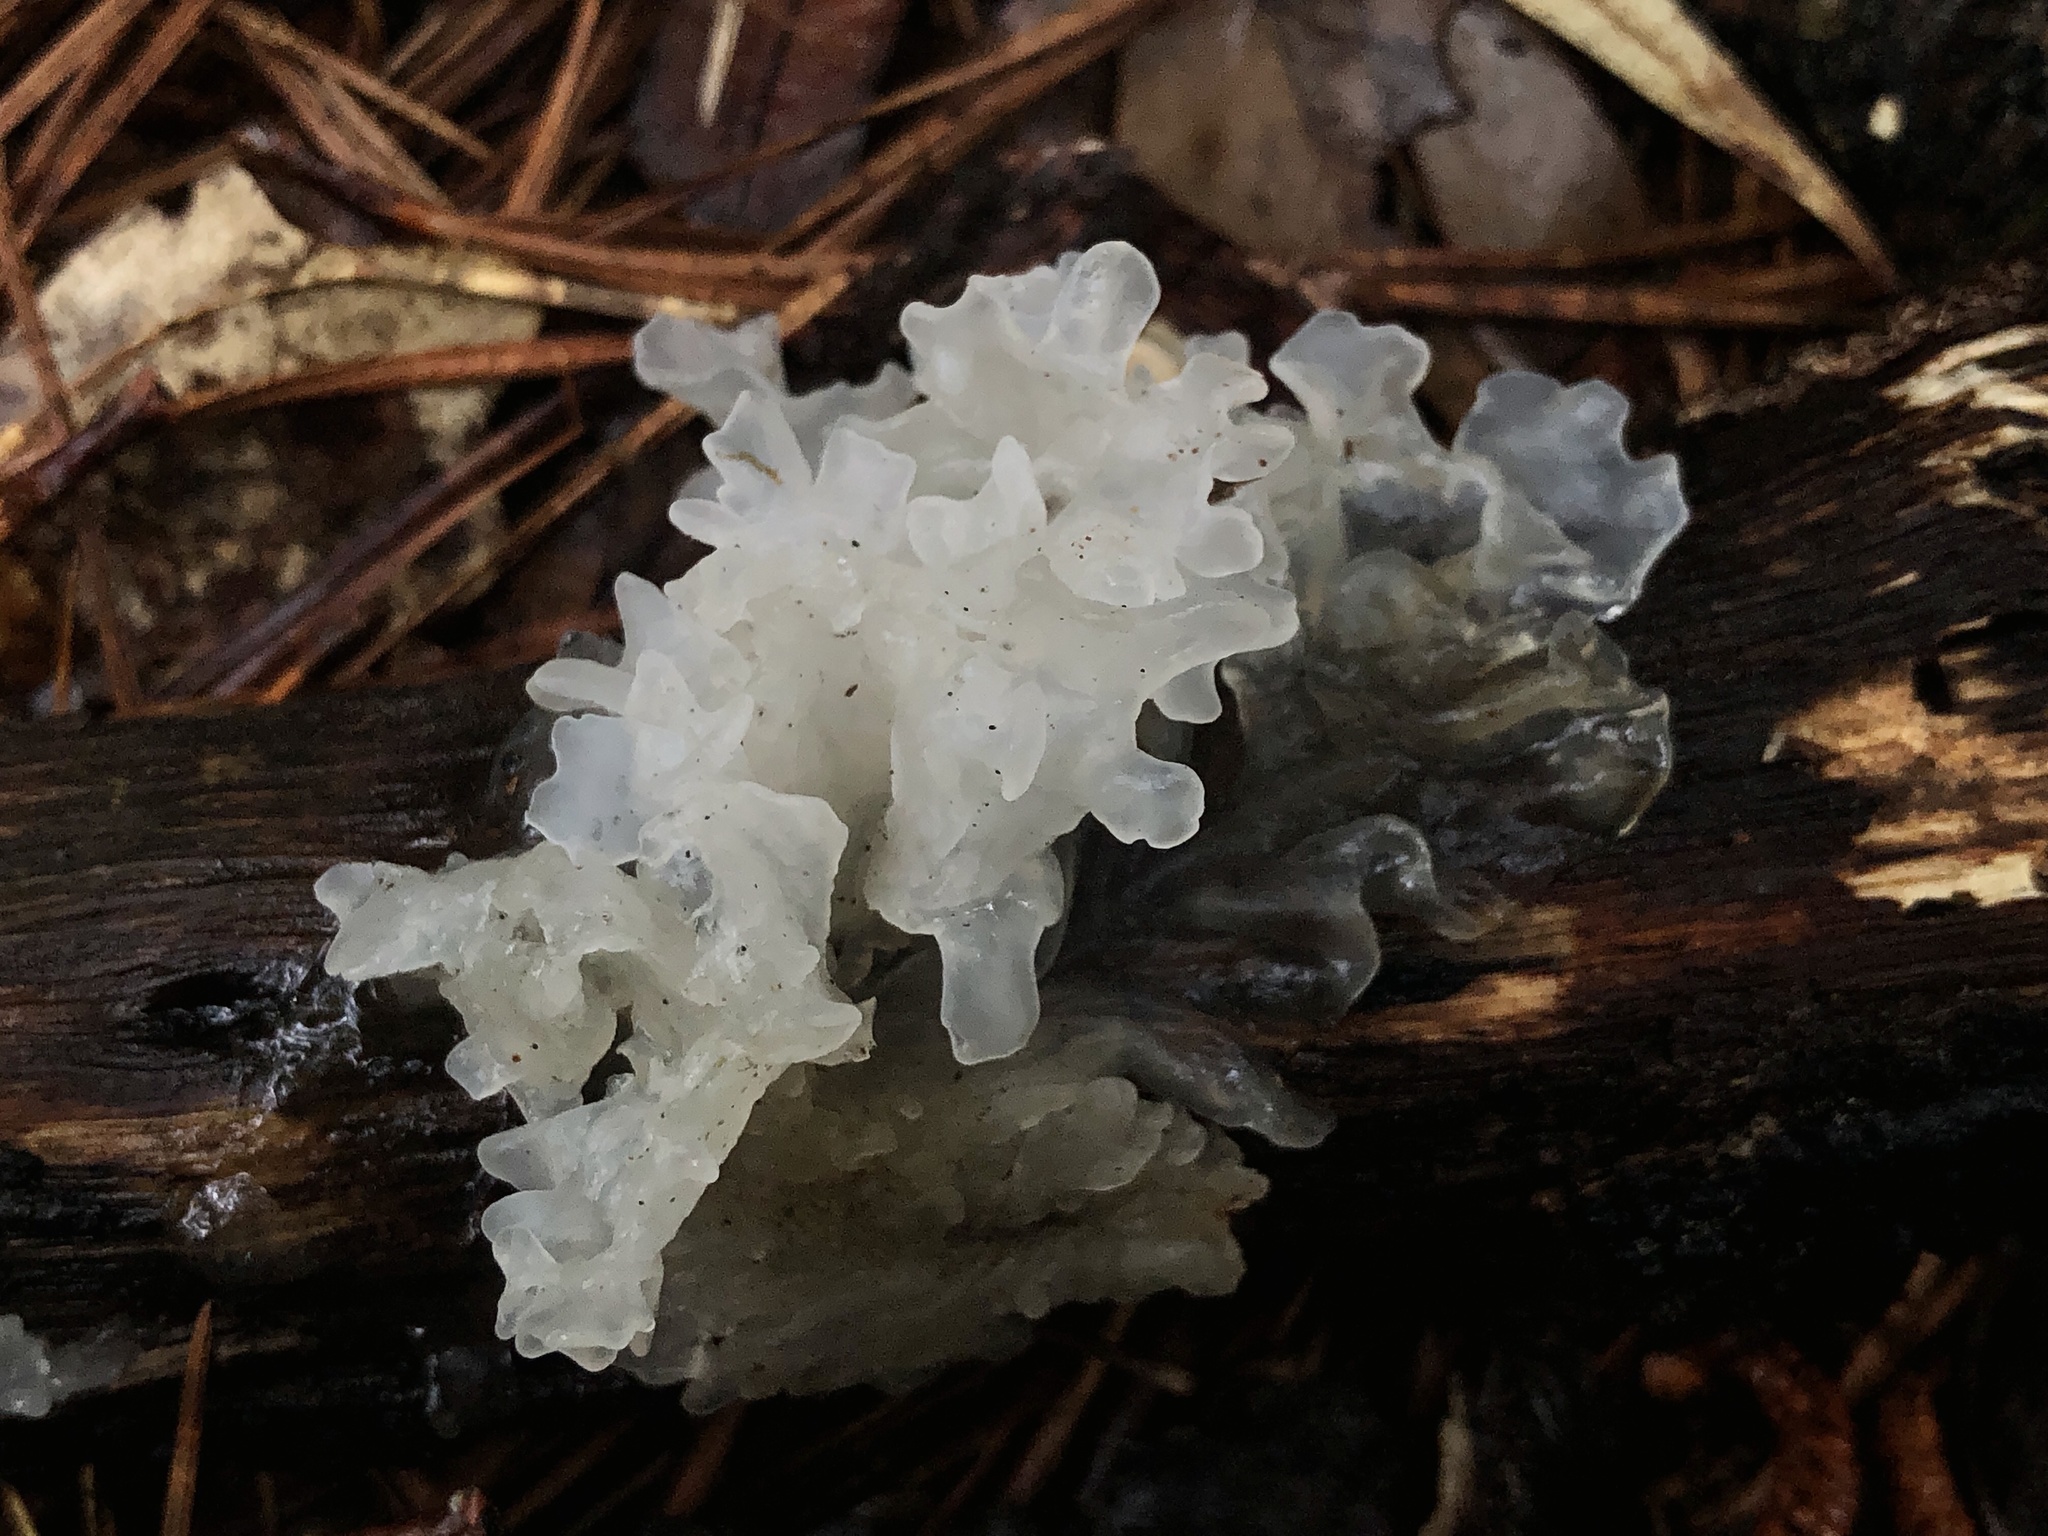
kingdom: Fungi
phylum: Basidiomycota
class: Tremellomycetes
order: Tremellales
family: Tremellaceae
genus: Tremella
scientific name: Tremella fuciformis
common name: Snow fungus
